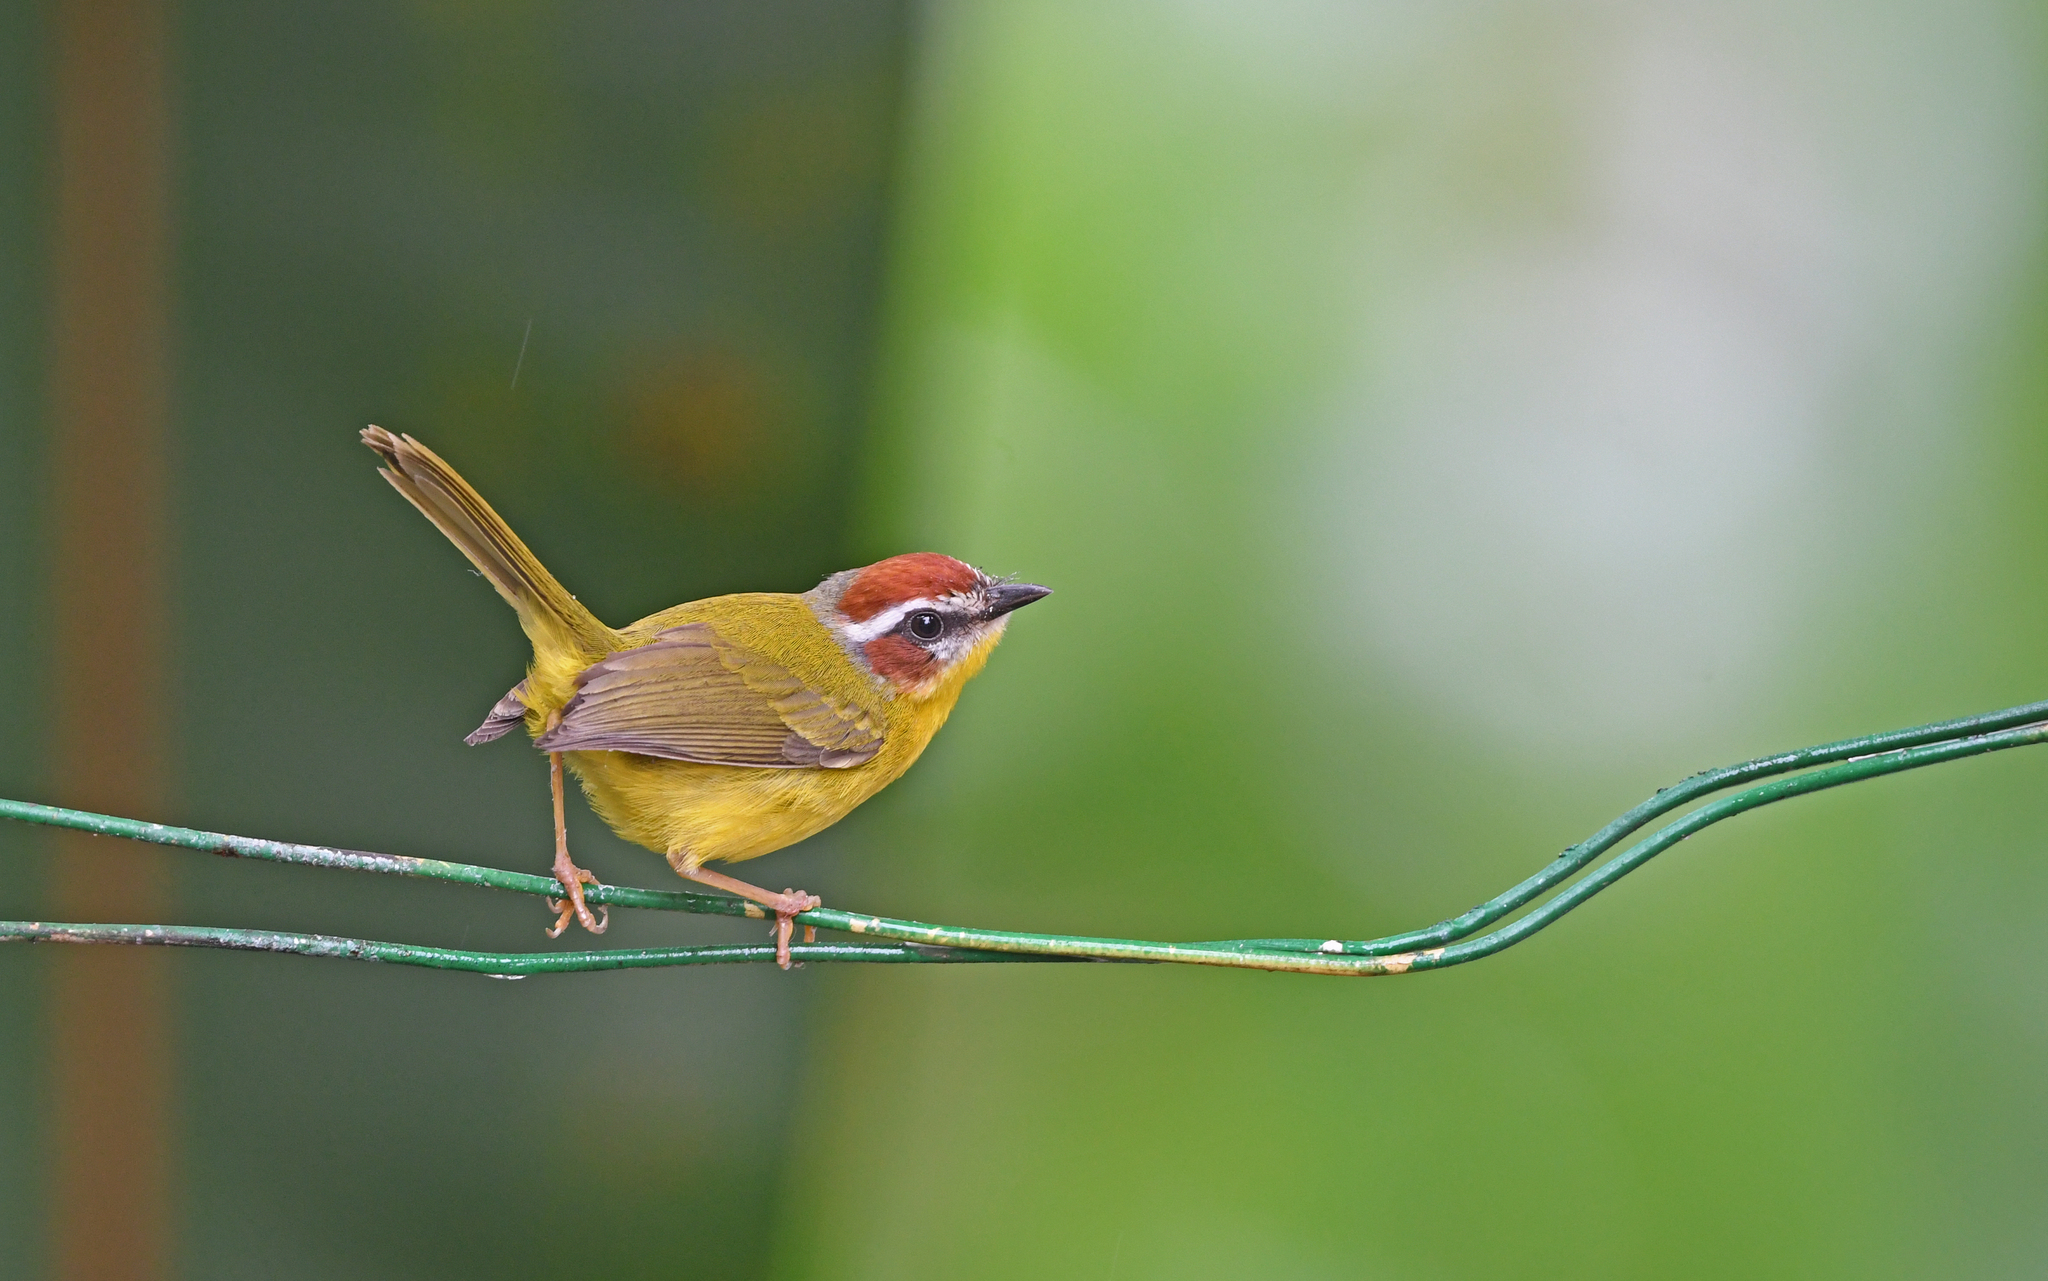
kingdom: Animalia
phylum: Chordata
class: Aves
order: Passeriformes
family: Parulidae
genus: Basileuterus
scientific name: Basileuterus rufifrons
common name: Rufous-capped warbler
